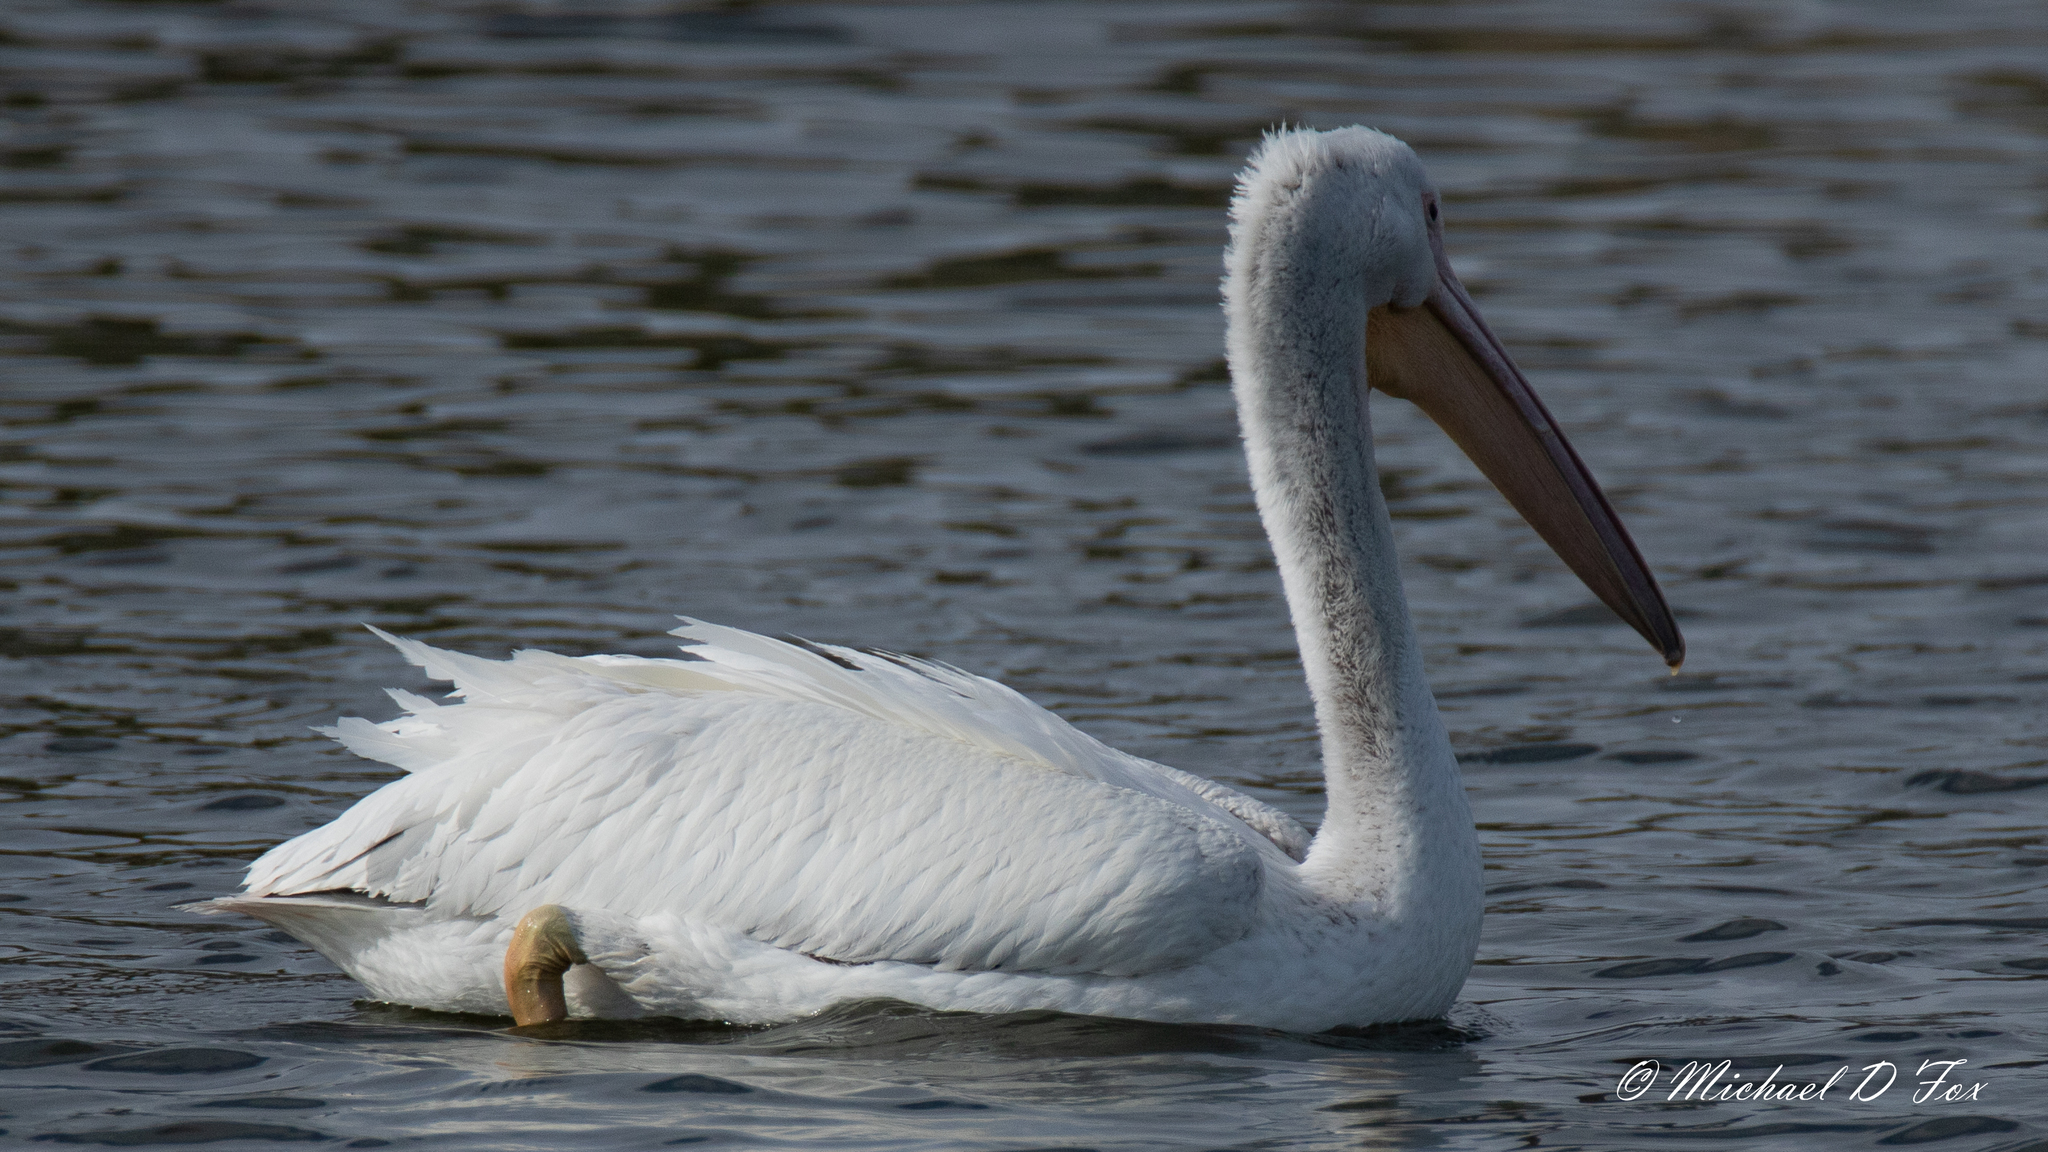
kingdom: Animalia
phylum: Chordata
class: Aves
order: Pelecaniformes
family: Pelecanidae
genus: Pelecanus
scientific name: Pelecanus erythrorhynchos
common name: American white pelican
